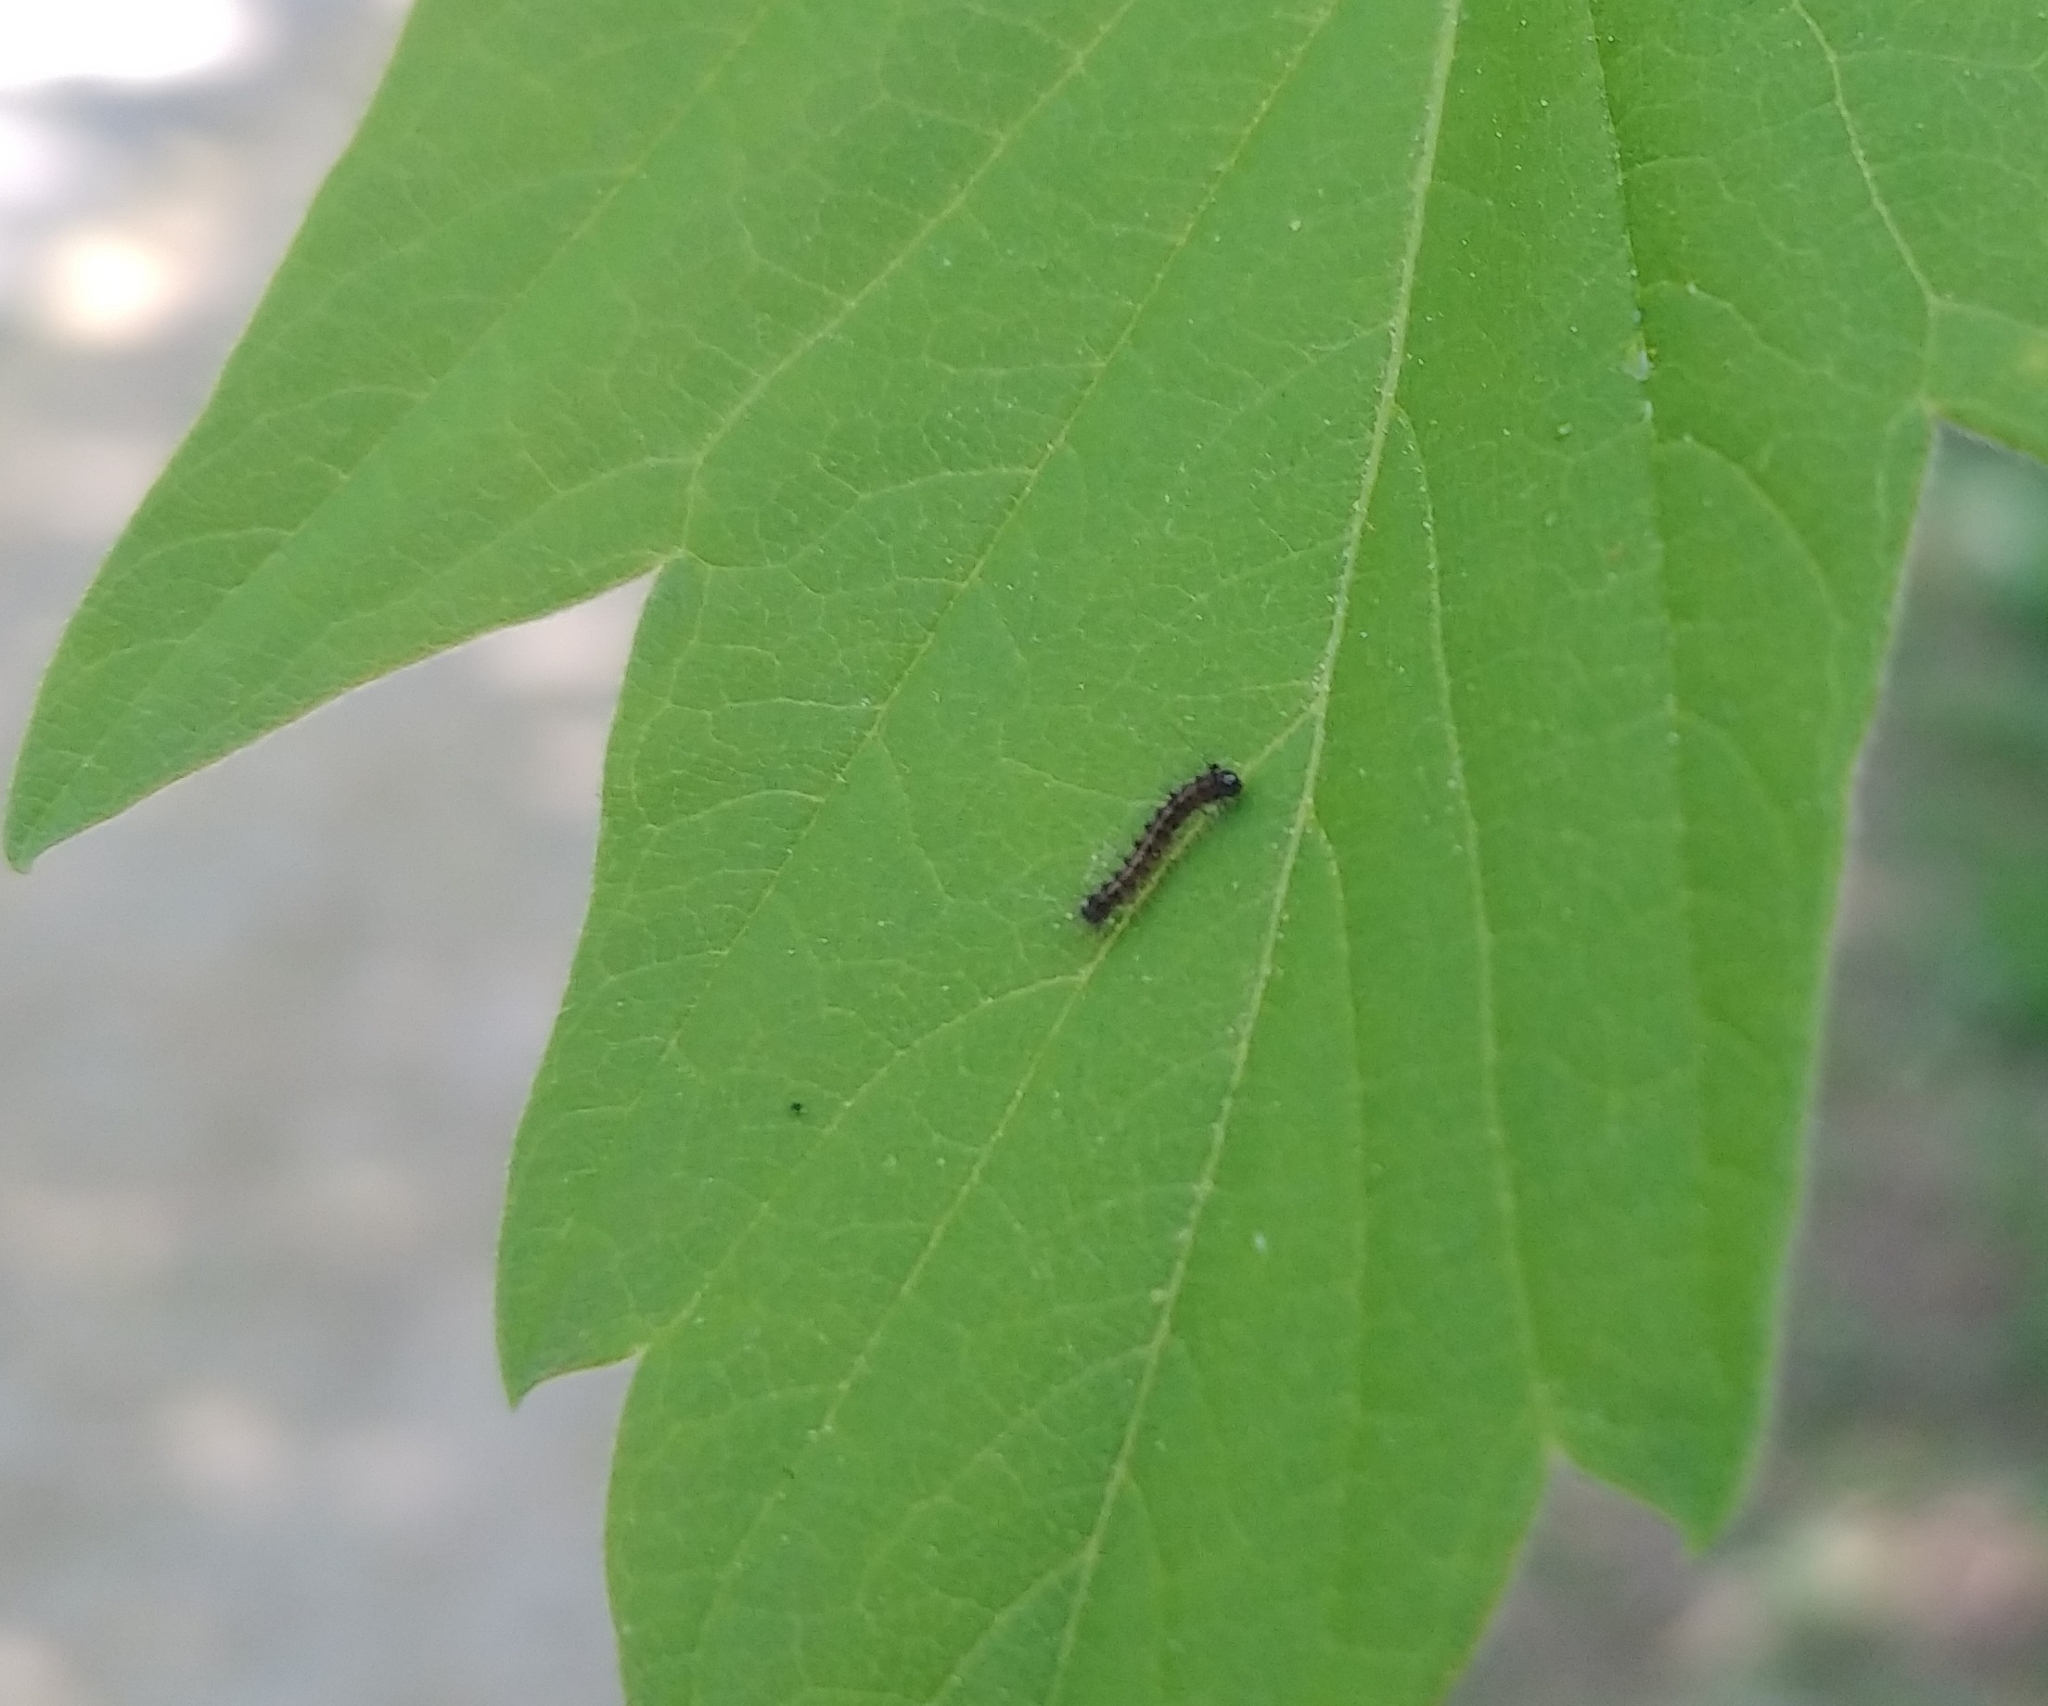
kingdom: Animalia
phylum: Arthropoda
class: Insecta
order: Lepidoptera
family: Erebidae
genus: Lymantria
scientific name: Lymantria dispar
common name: Gypsy moth
